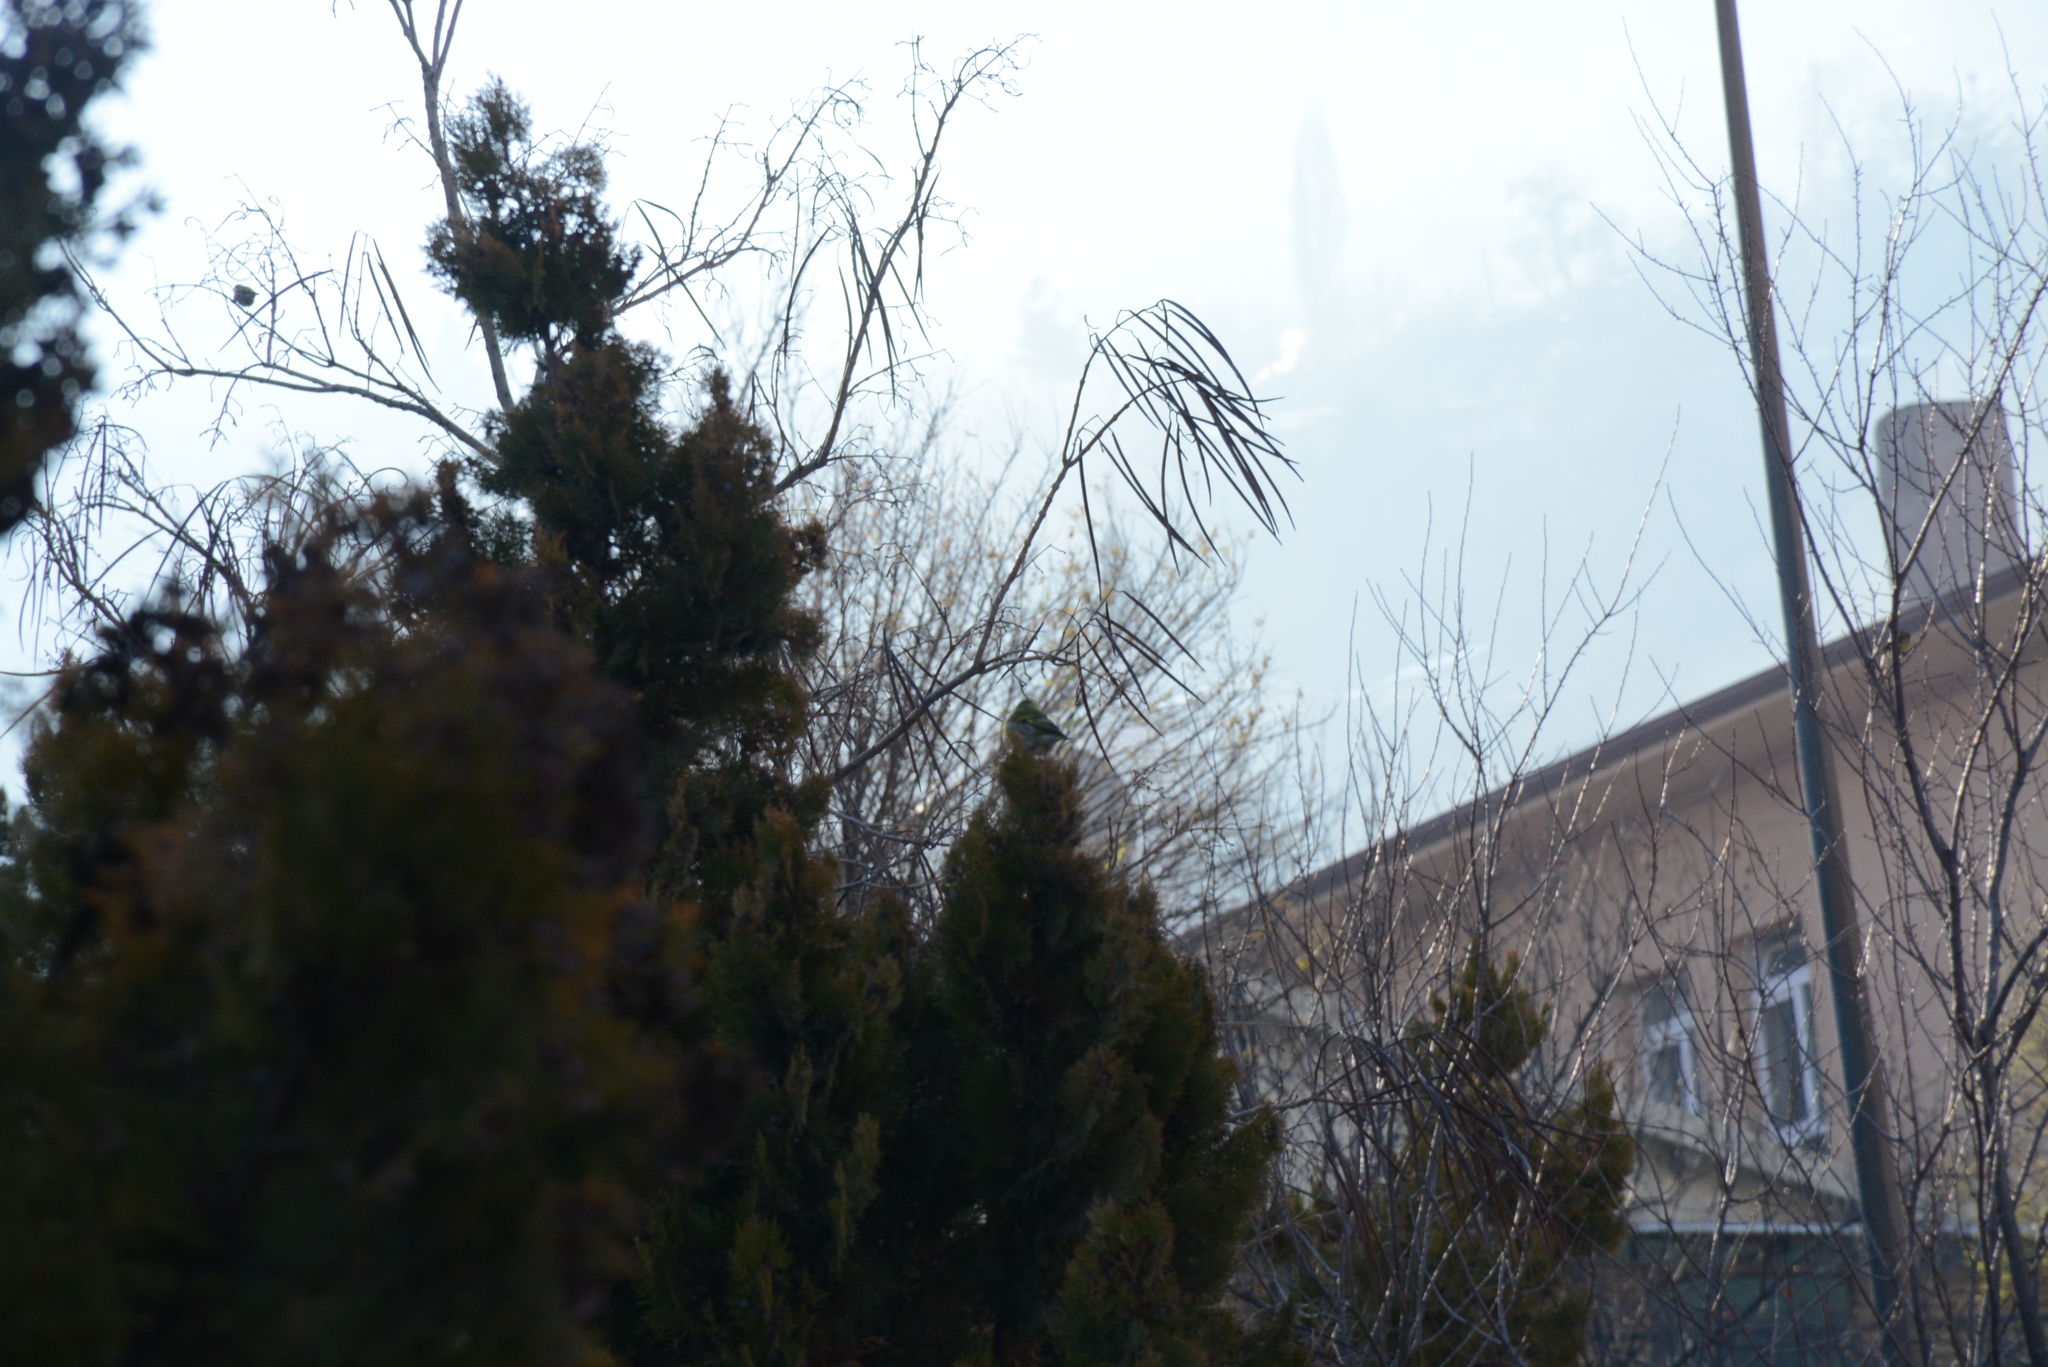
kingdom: Animalia
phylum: Chordata
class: Aves
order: Passeriformes
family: Fringillidae
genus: Spinus
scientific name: Spinus spinus
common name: Eurasian siskin
